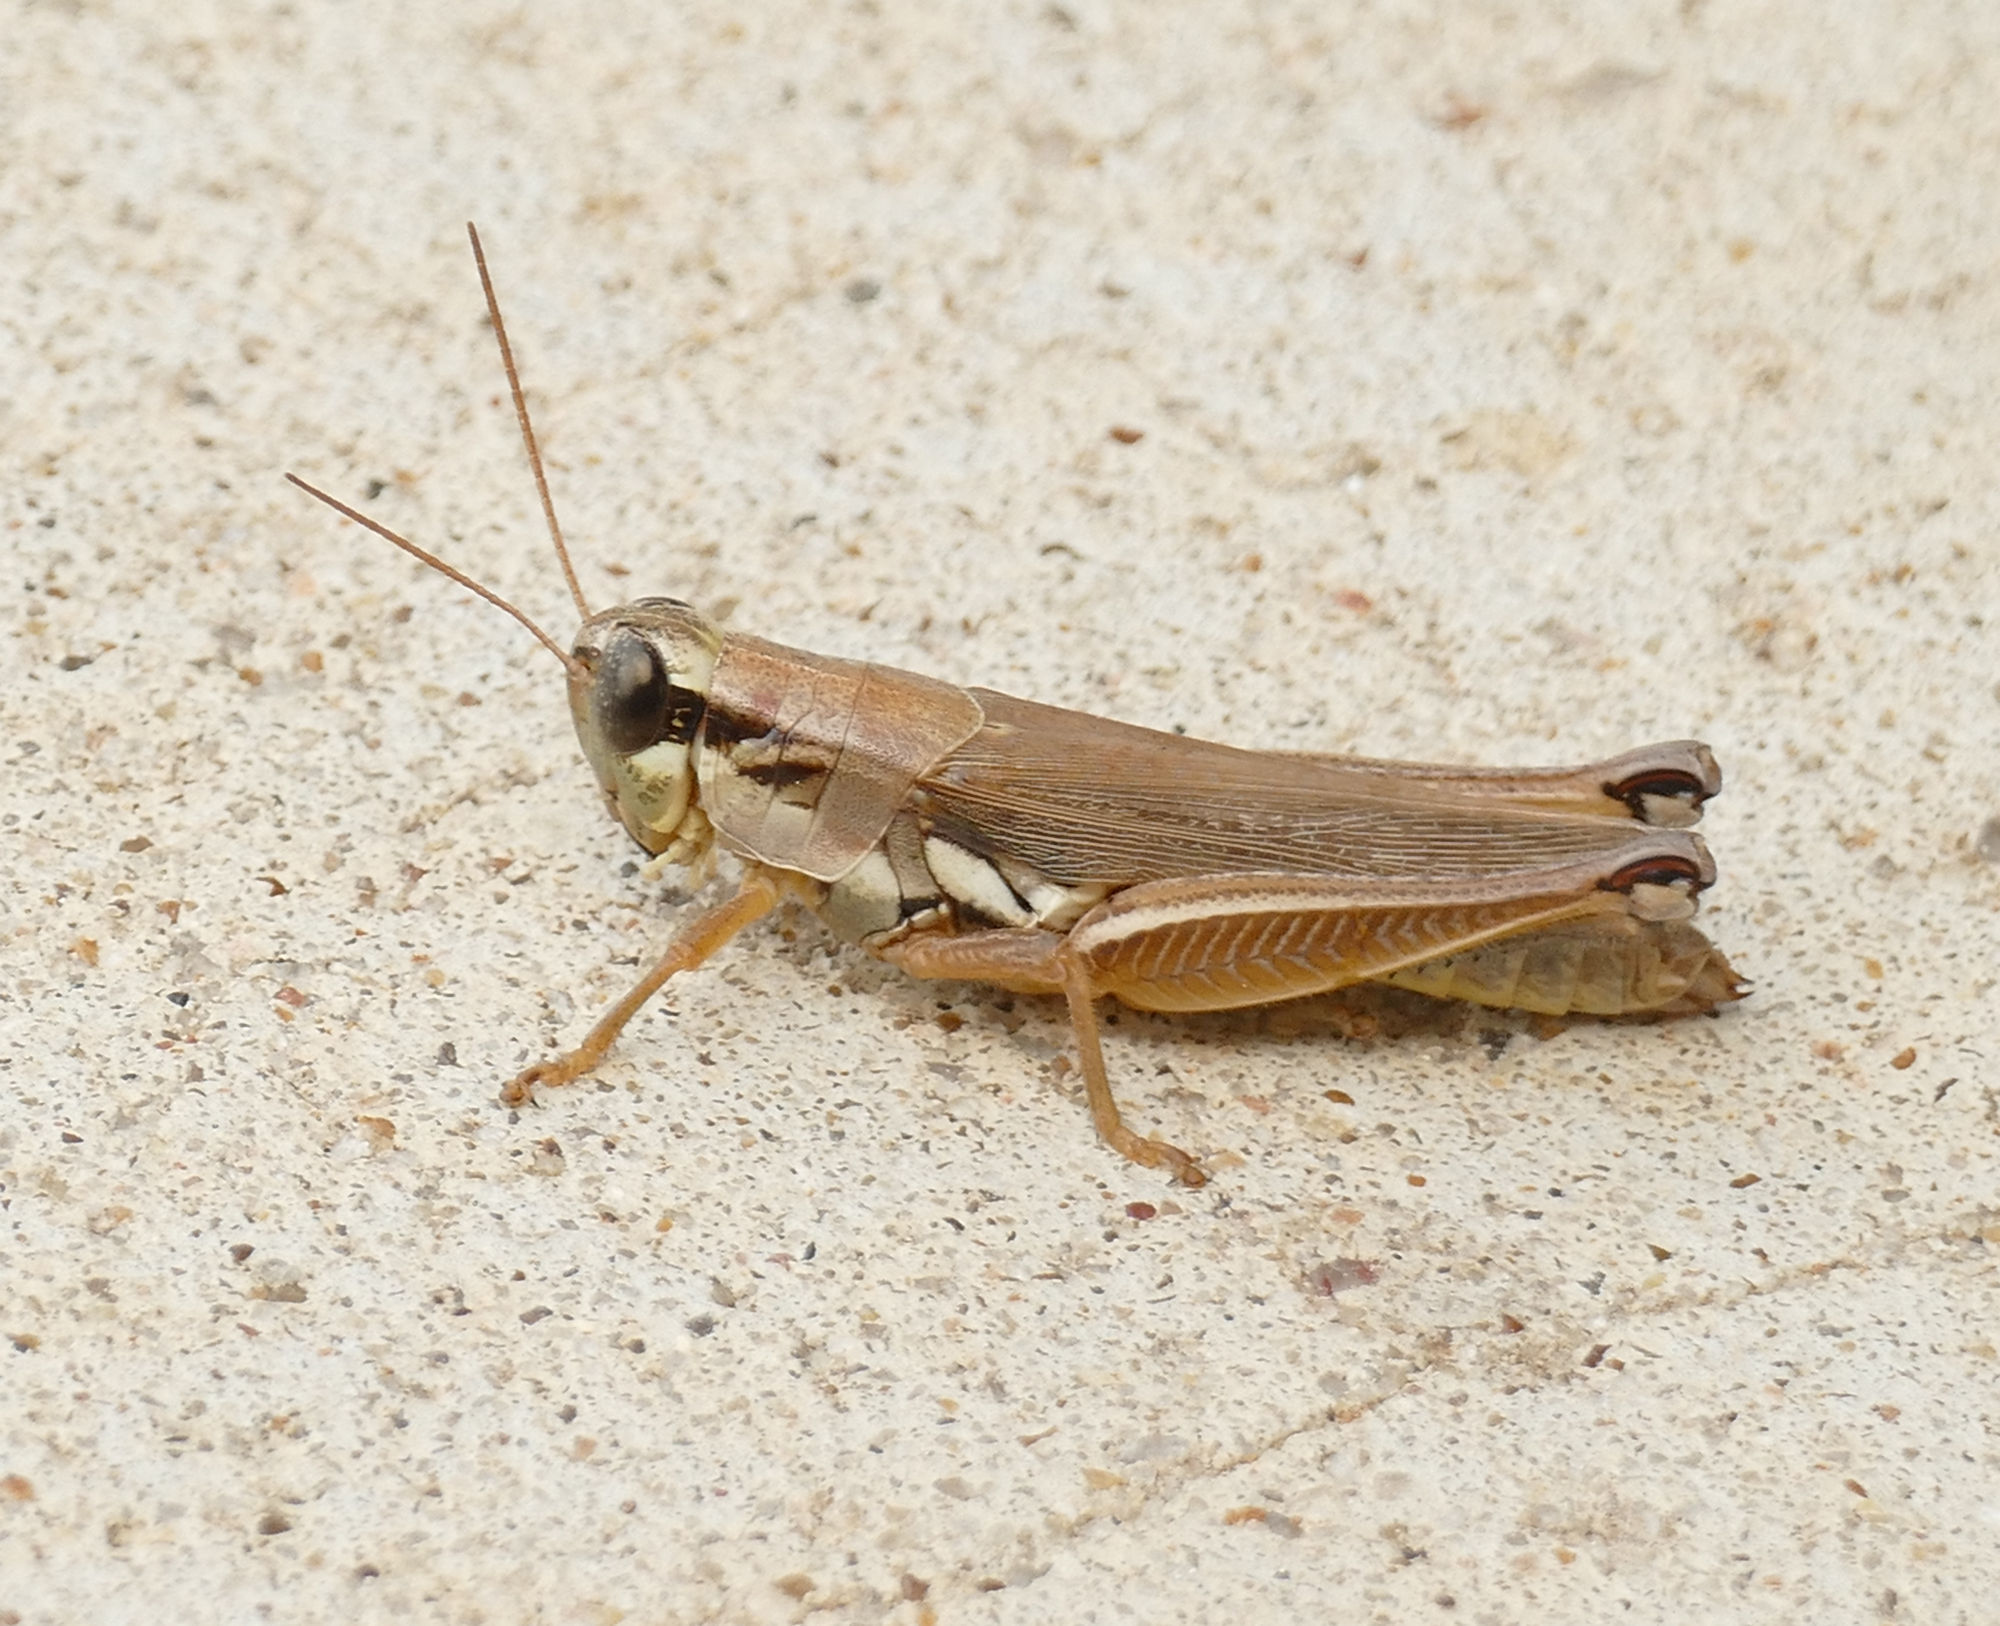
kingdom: Animalia
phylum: Arthropoda
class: Insecta
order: Orthoptera
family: Acrididae
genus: Paroxya
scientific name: Paroxya atlantica
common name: Atlantic grasshopper
